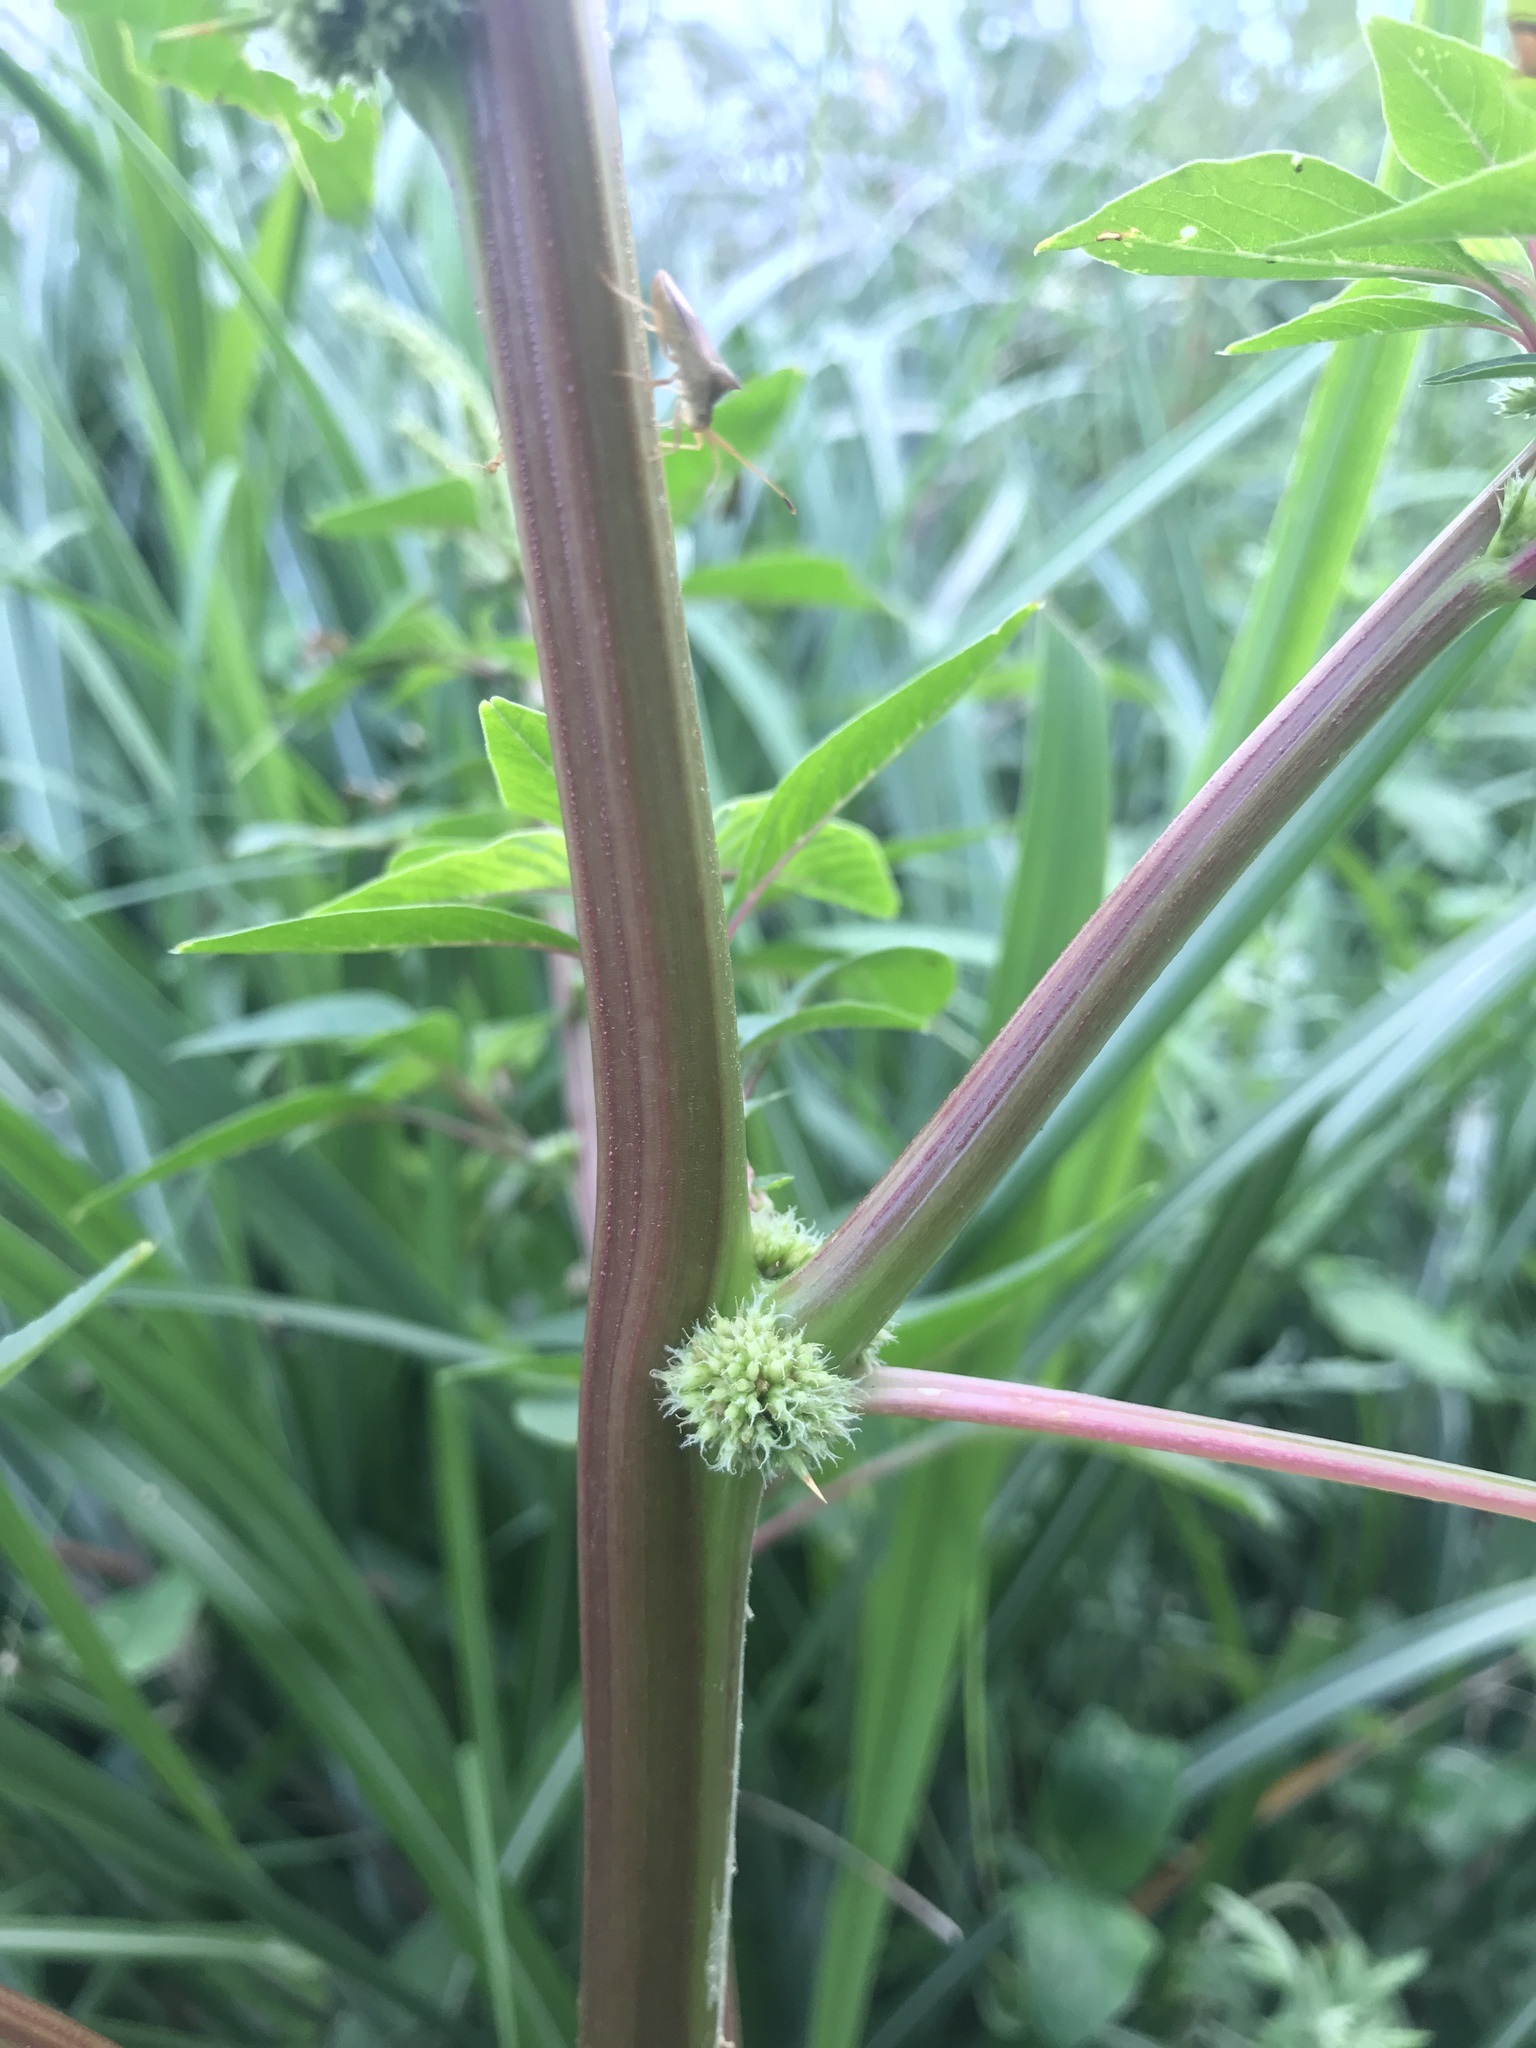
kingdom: Plantae
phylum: Tracheophyta
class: Magnoliopsida
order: Caryophyllales
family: Amaranthaceae
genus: Amaranthus
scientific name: Amaranthus spinosus
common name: Spiny amaranth
